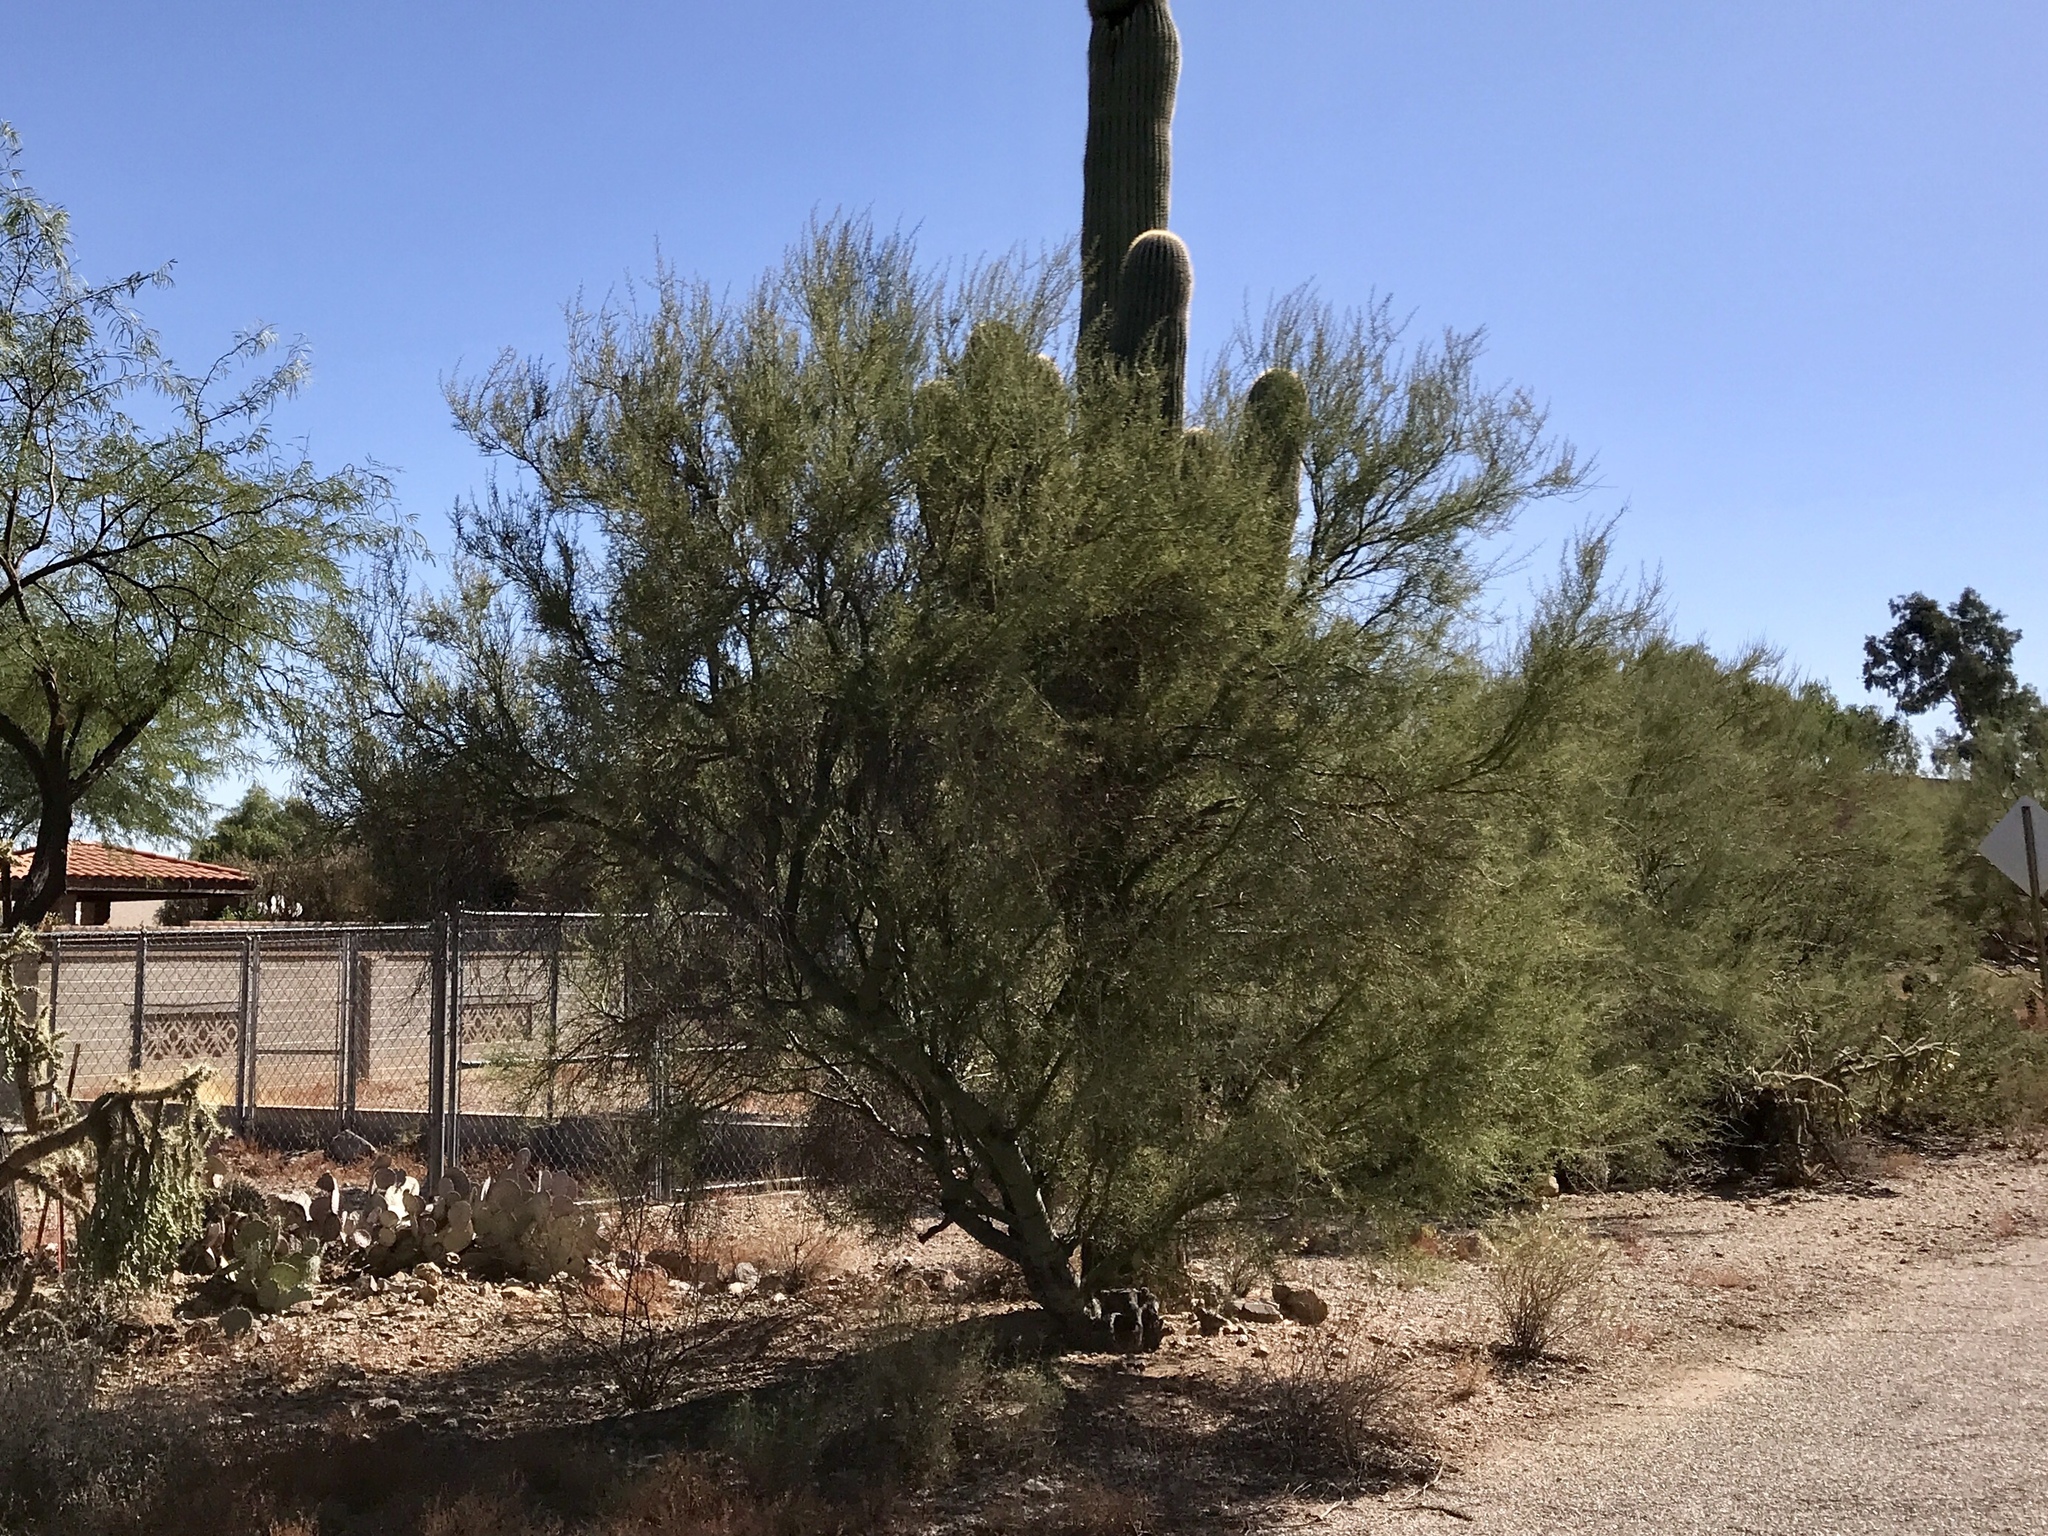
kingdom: Plantae
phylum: Tracheophyta
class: Magnoliopsida
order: Fabales
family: Fabaceae
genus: Parkinsonia
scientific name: Parkinsonia microphylla
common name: Yellow paloverde
